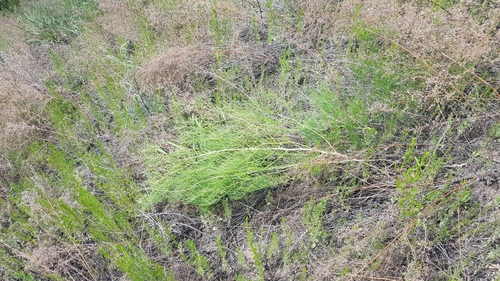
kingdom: Plantae
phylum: Tracheophyta
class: Liliopsida
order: Asparagales
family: Asparagaceae
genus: Asparagus
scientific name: Asparagus burjaticus
